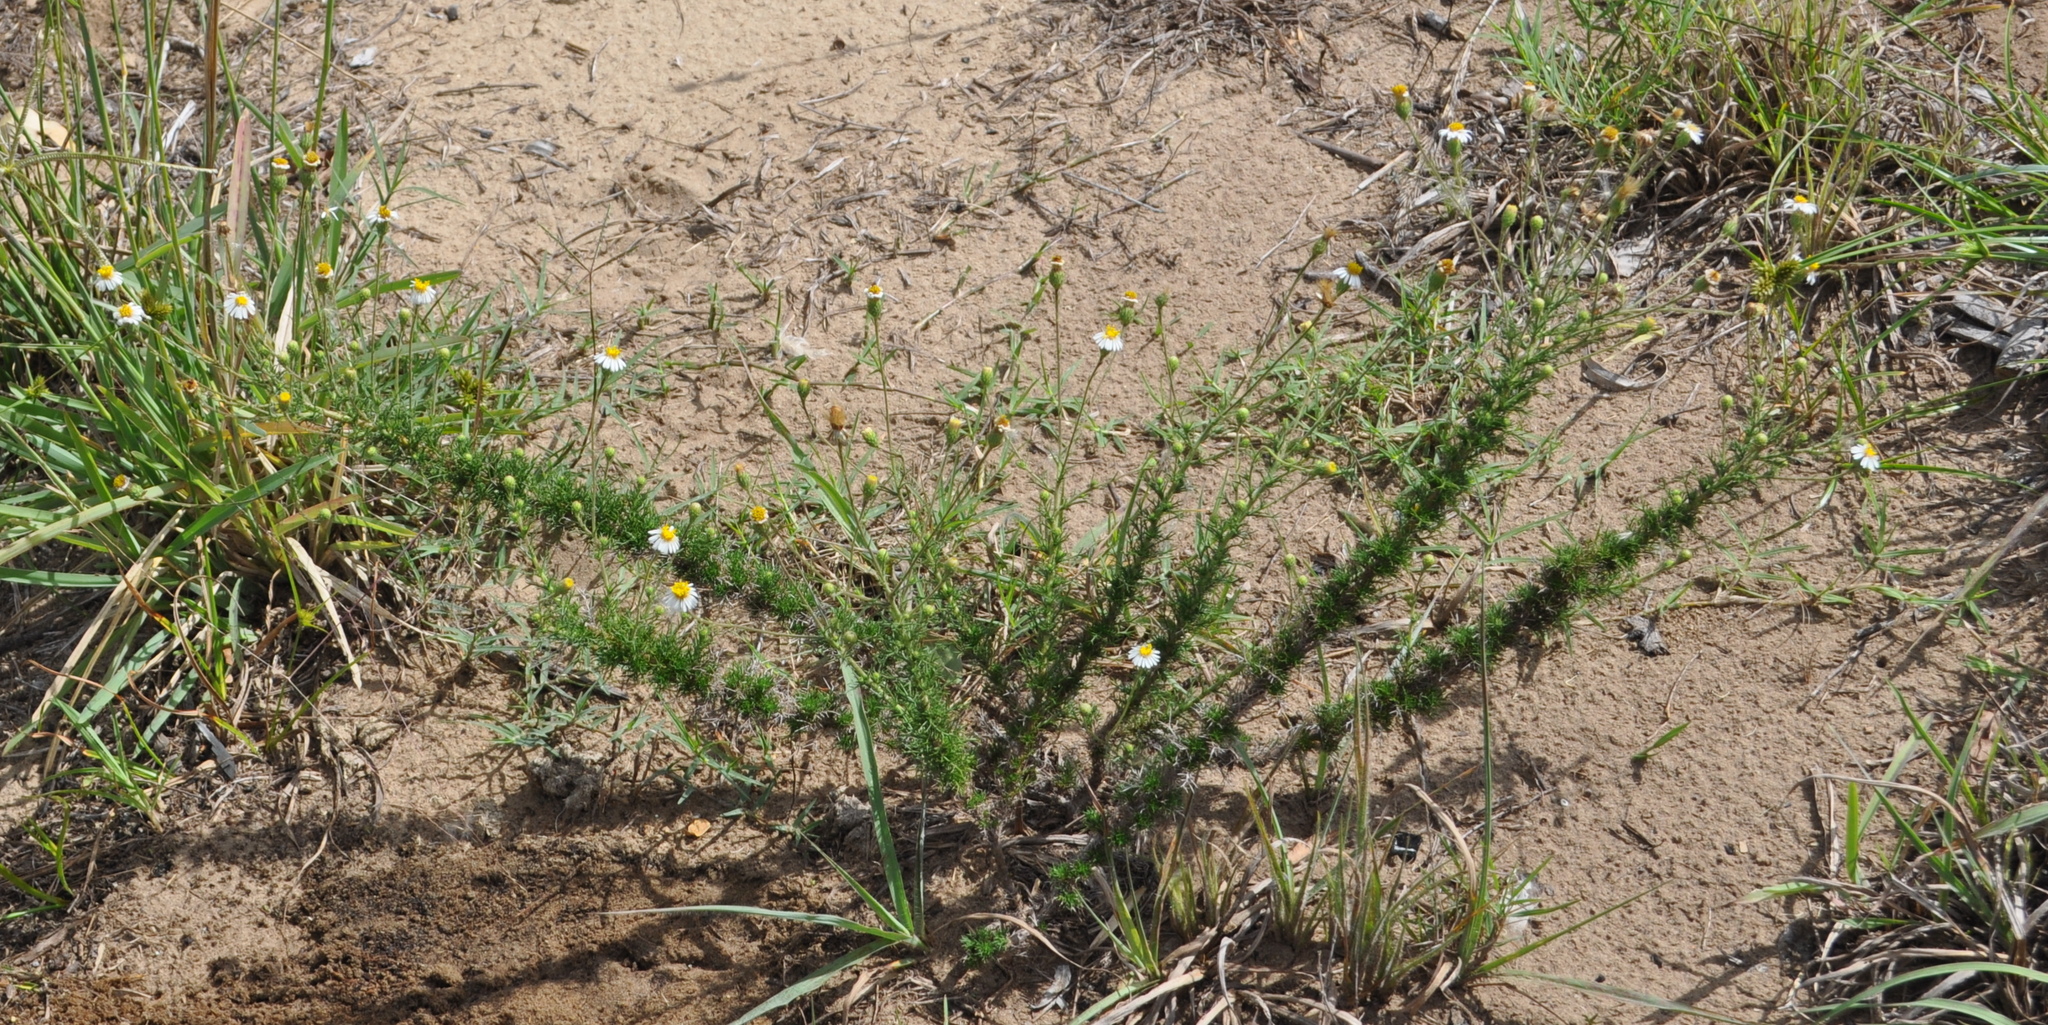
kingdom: Plantae
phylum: Tracheophyta
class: Magnoliopsida
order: Asterales
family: Asteraceae
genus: Sommerfeltia
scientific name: Sommerfeltia spinulosa
